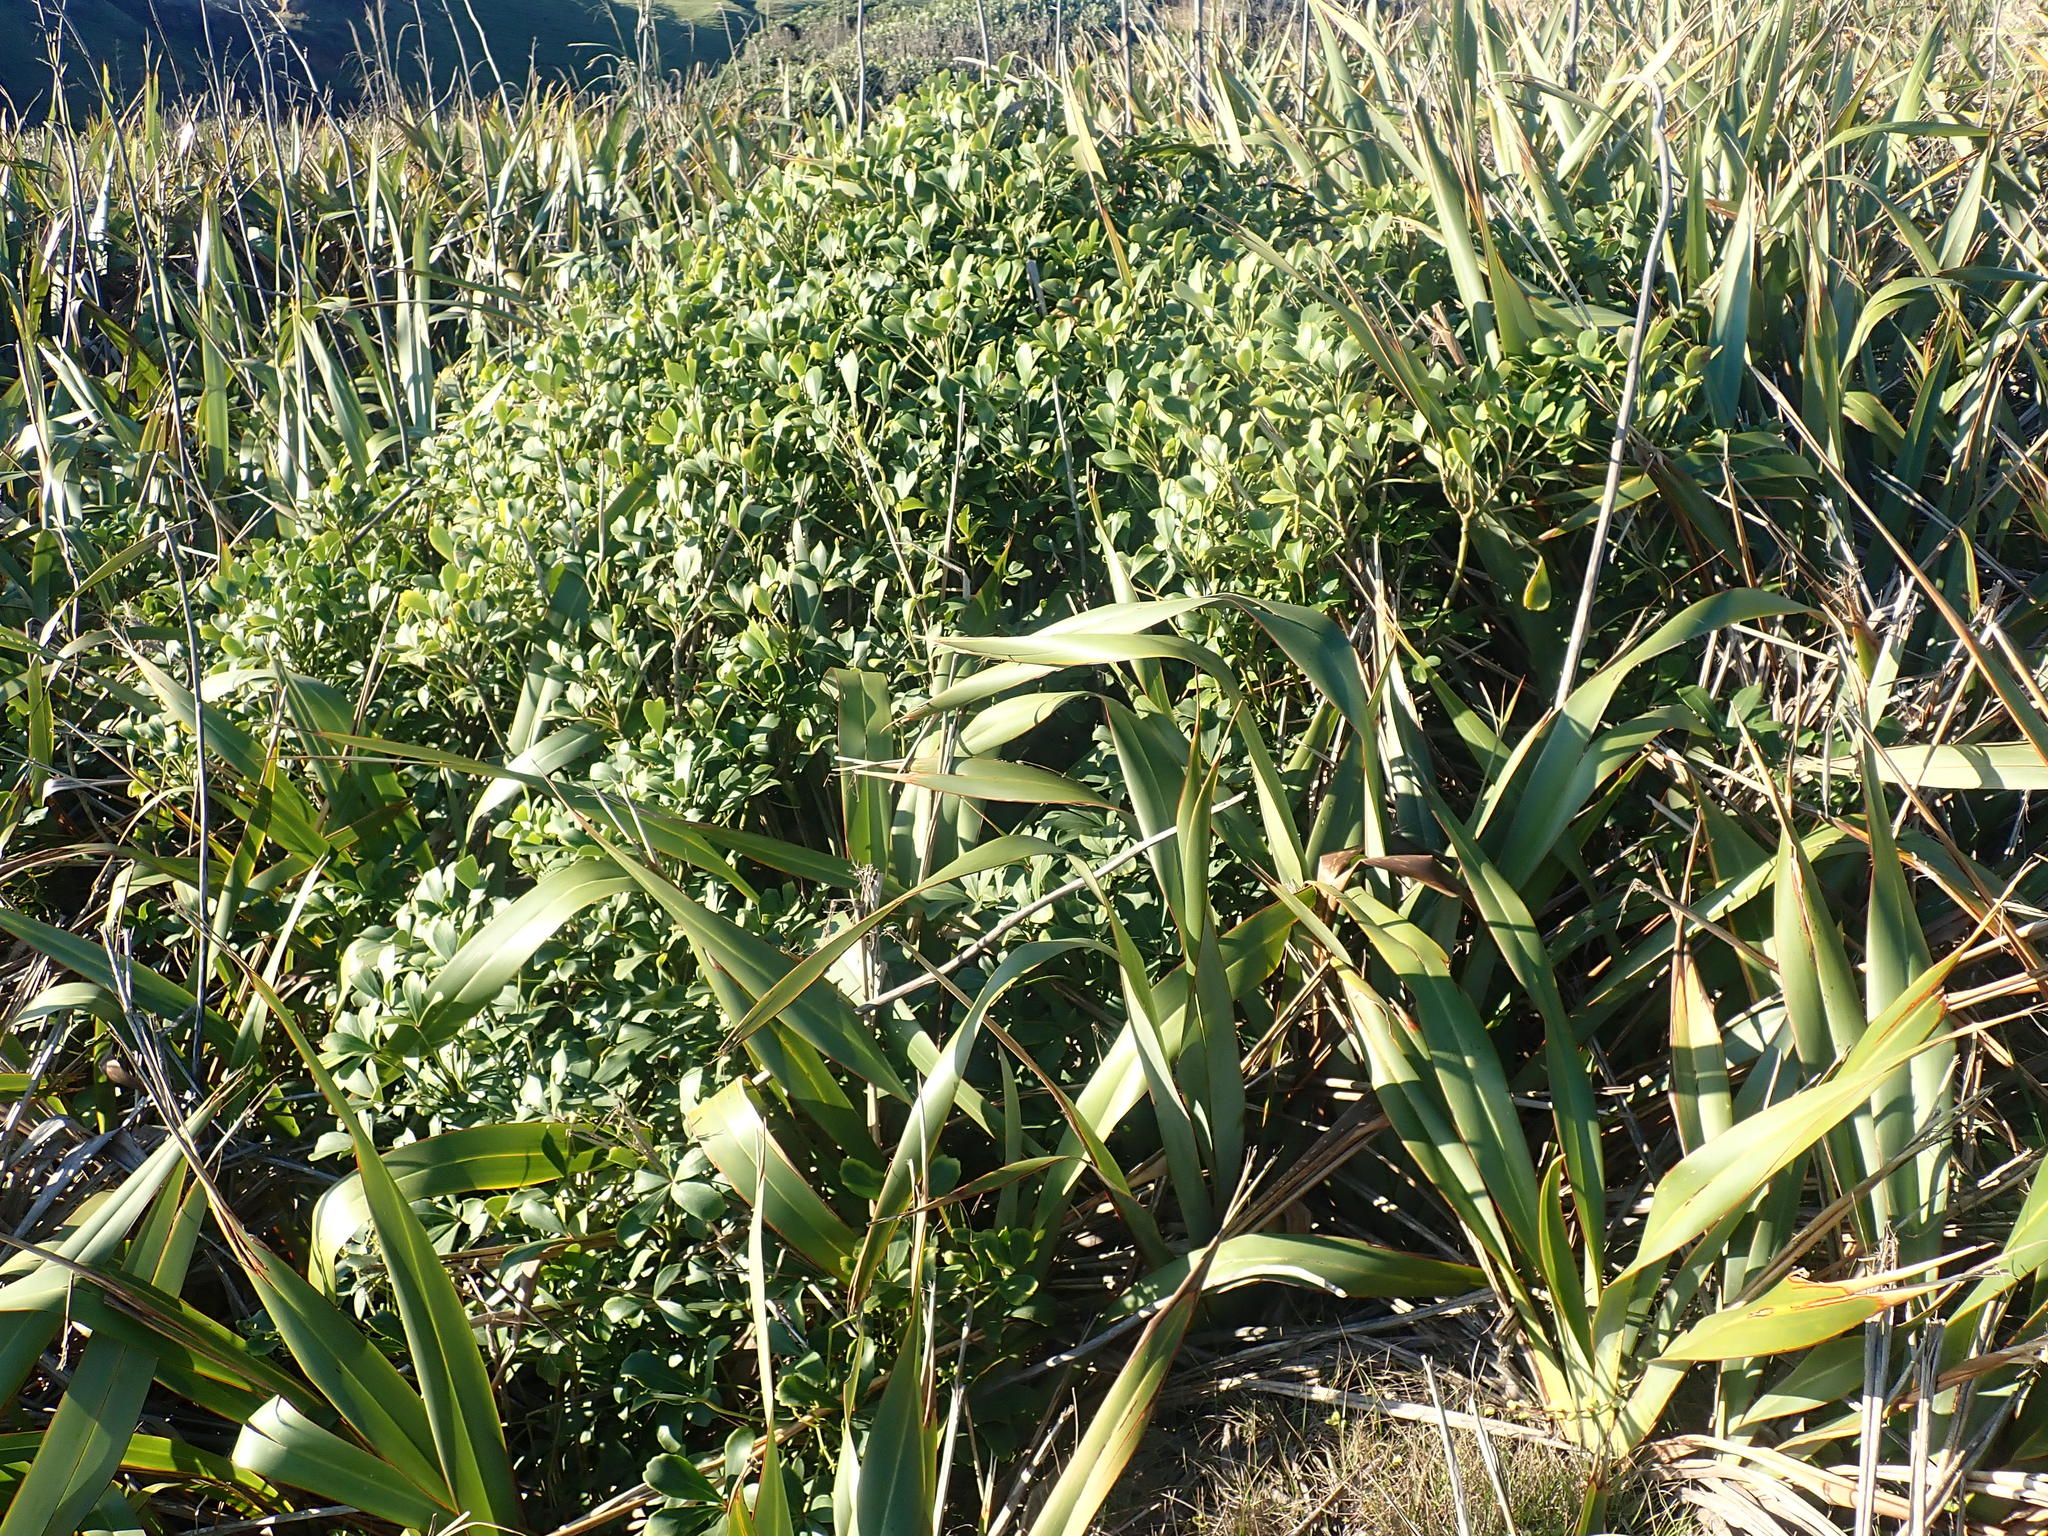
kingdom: Plantae
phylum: Tracheophyta
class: Liliopsida
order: Asparagales
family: Asphodelaceae
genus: Phormium
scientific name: Phormium tenax
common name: New zealand flax
